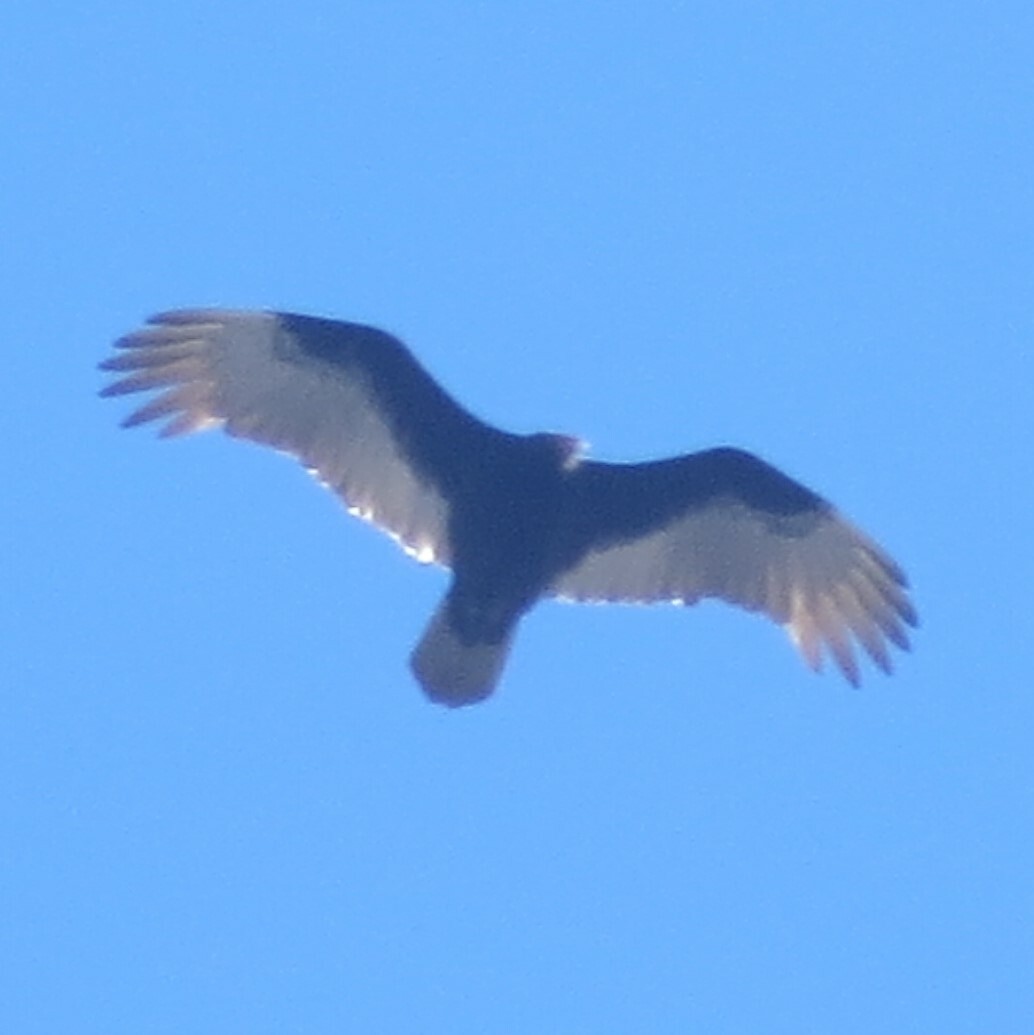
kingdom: Animalia
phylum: Chordata
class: Aves
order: Accipitriformes
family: Cathartidae
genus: Cathartes
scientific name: Cathartes aura
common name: Turkey vulture
